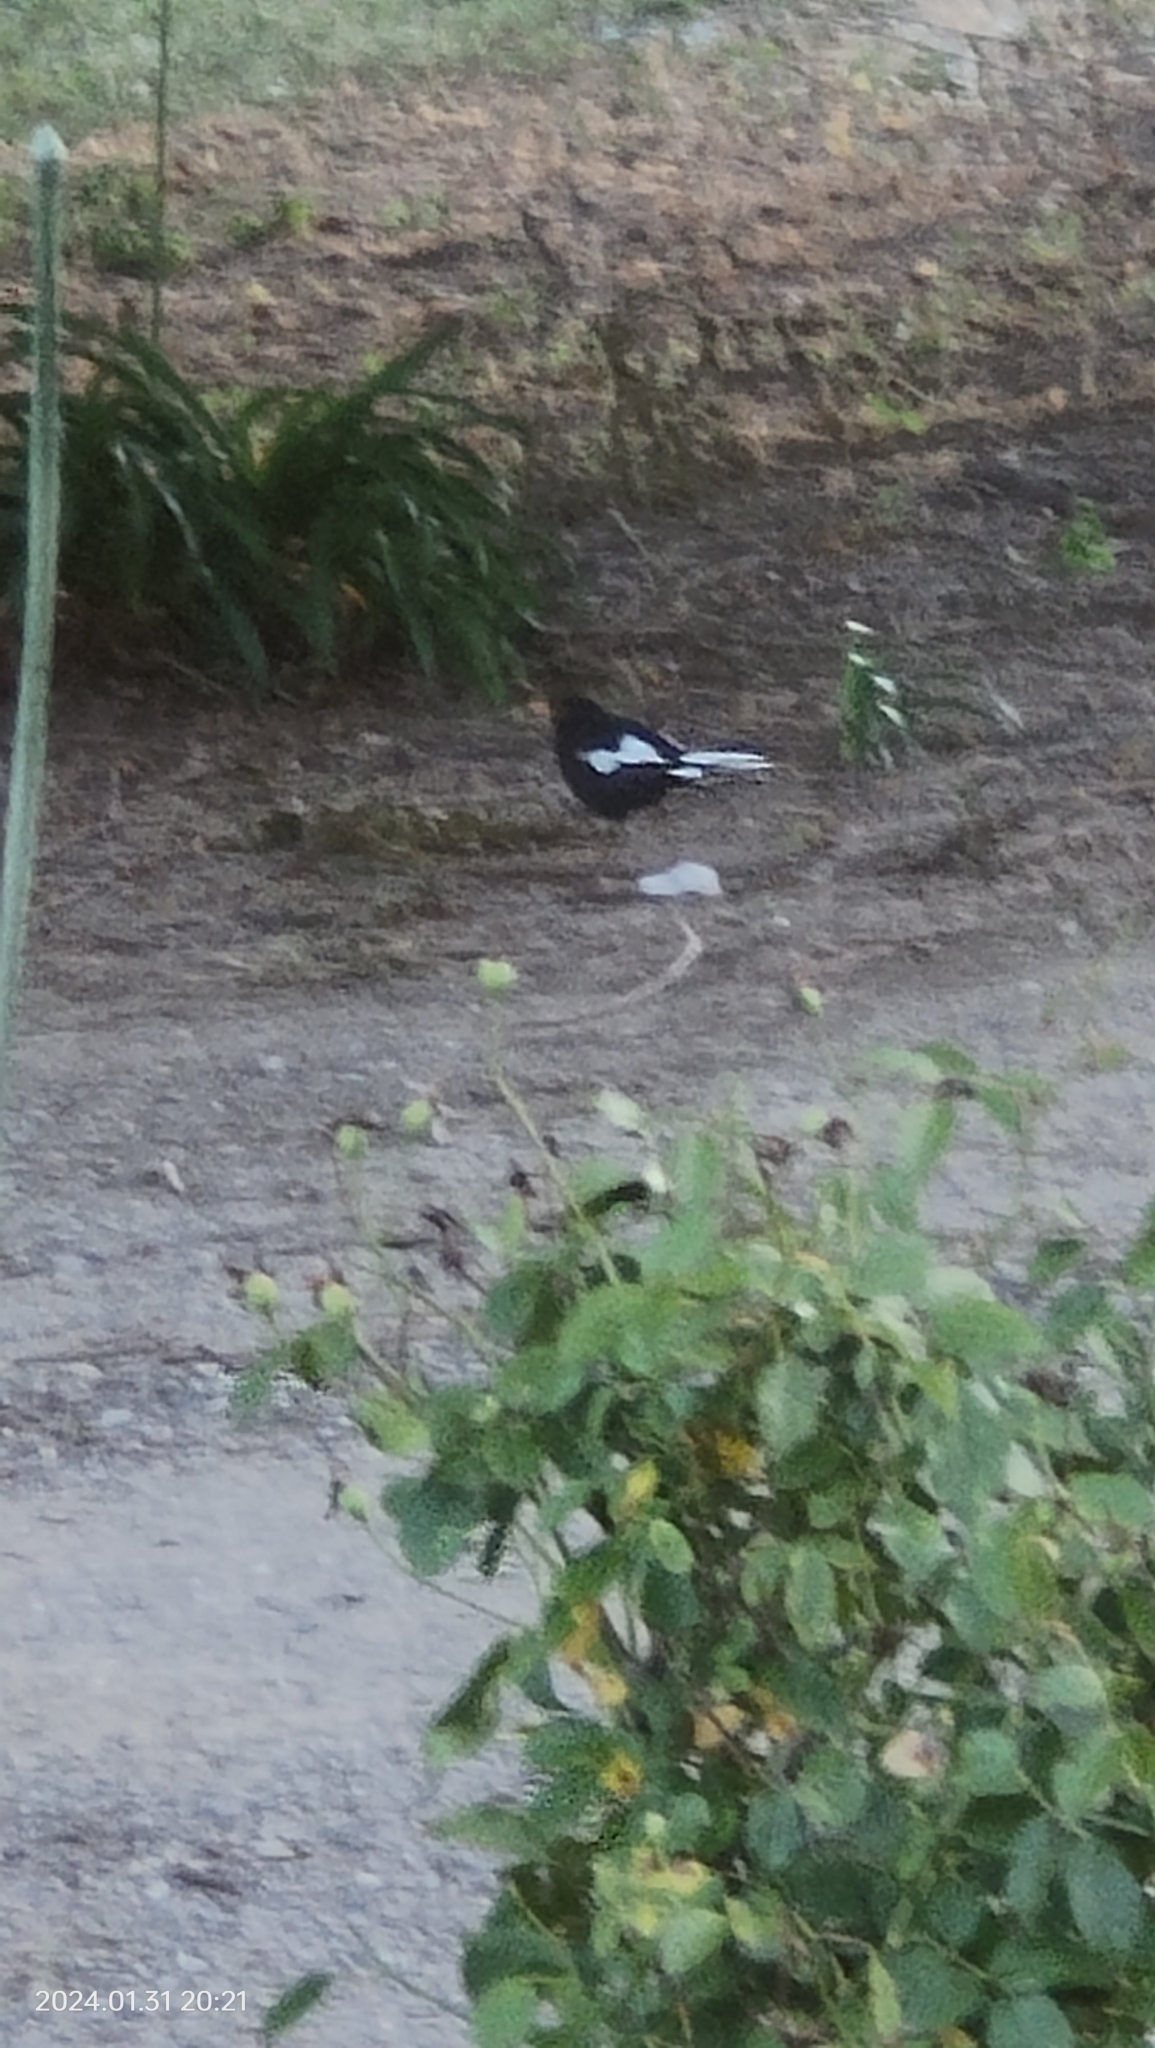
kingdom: Animalia
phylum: Chordata
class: Aves
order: Passeriformes
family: Turdidae
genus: Turdus
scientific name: Turdus merula
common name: Common blackbird
